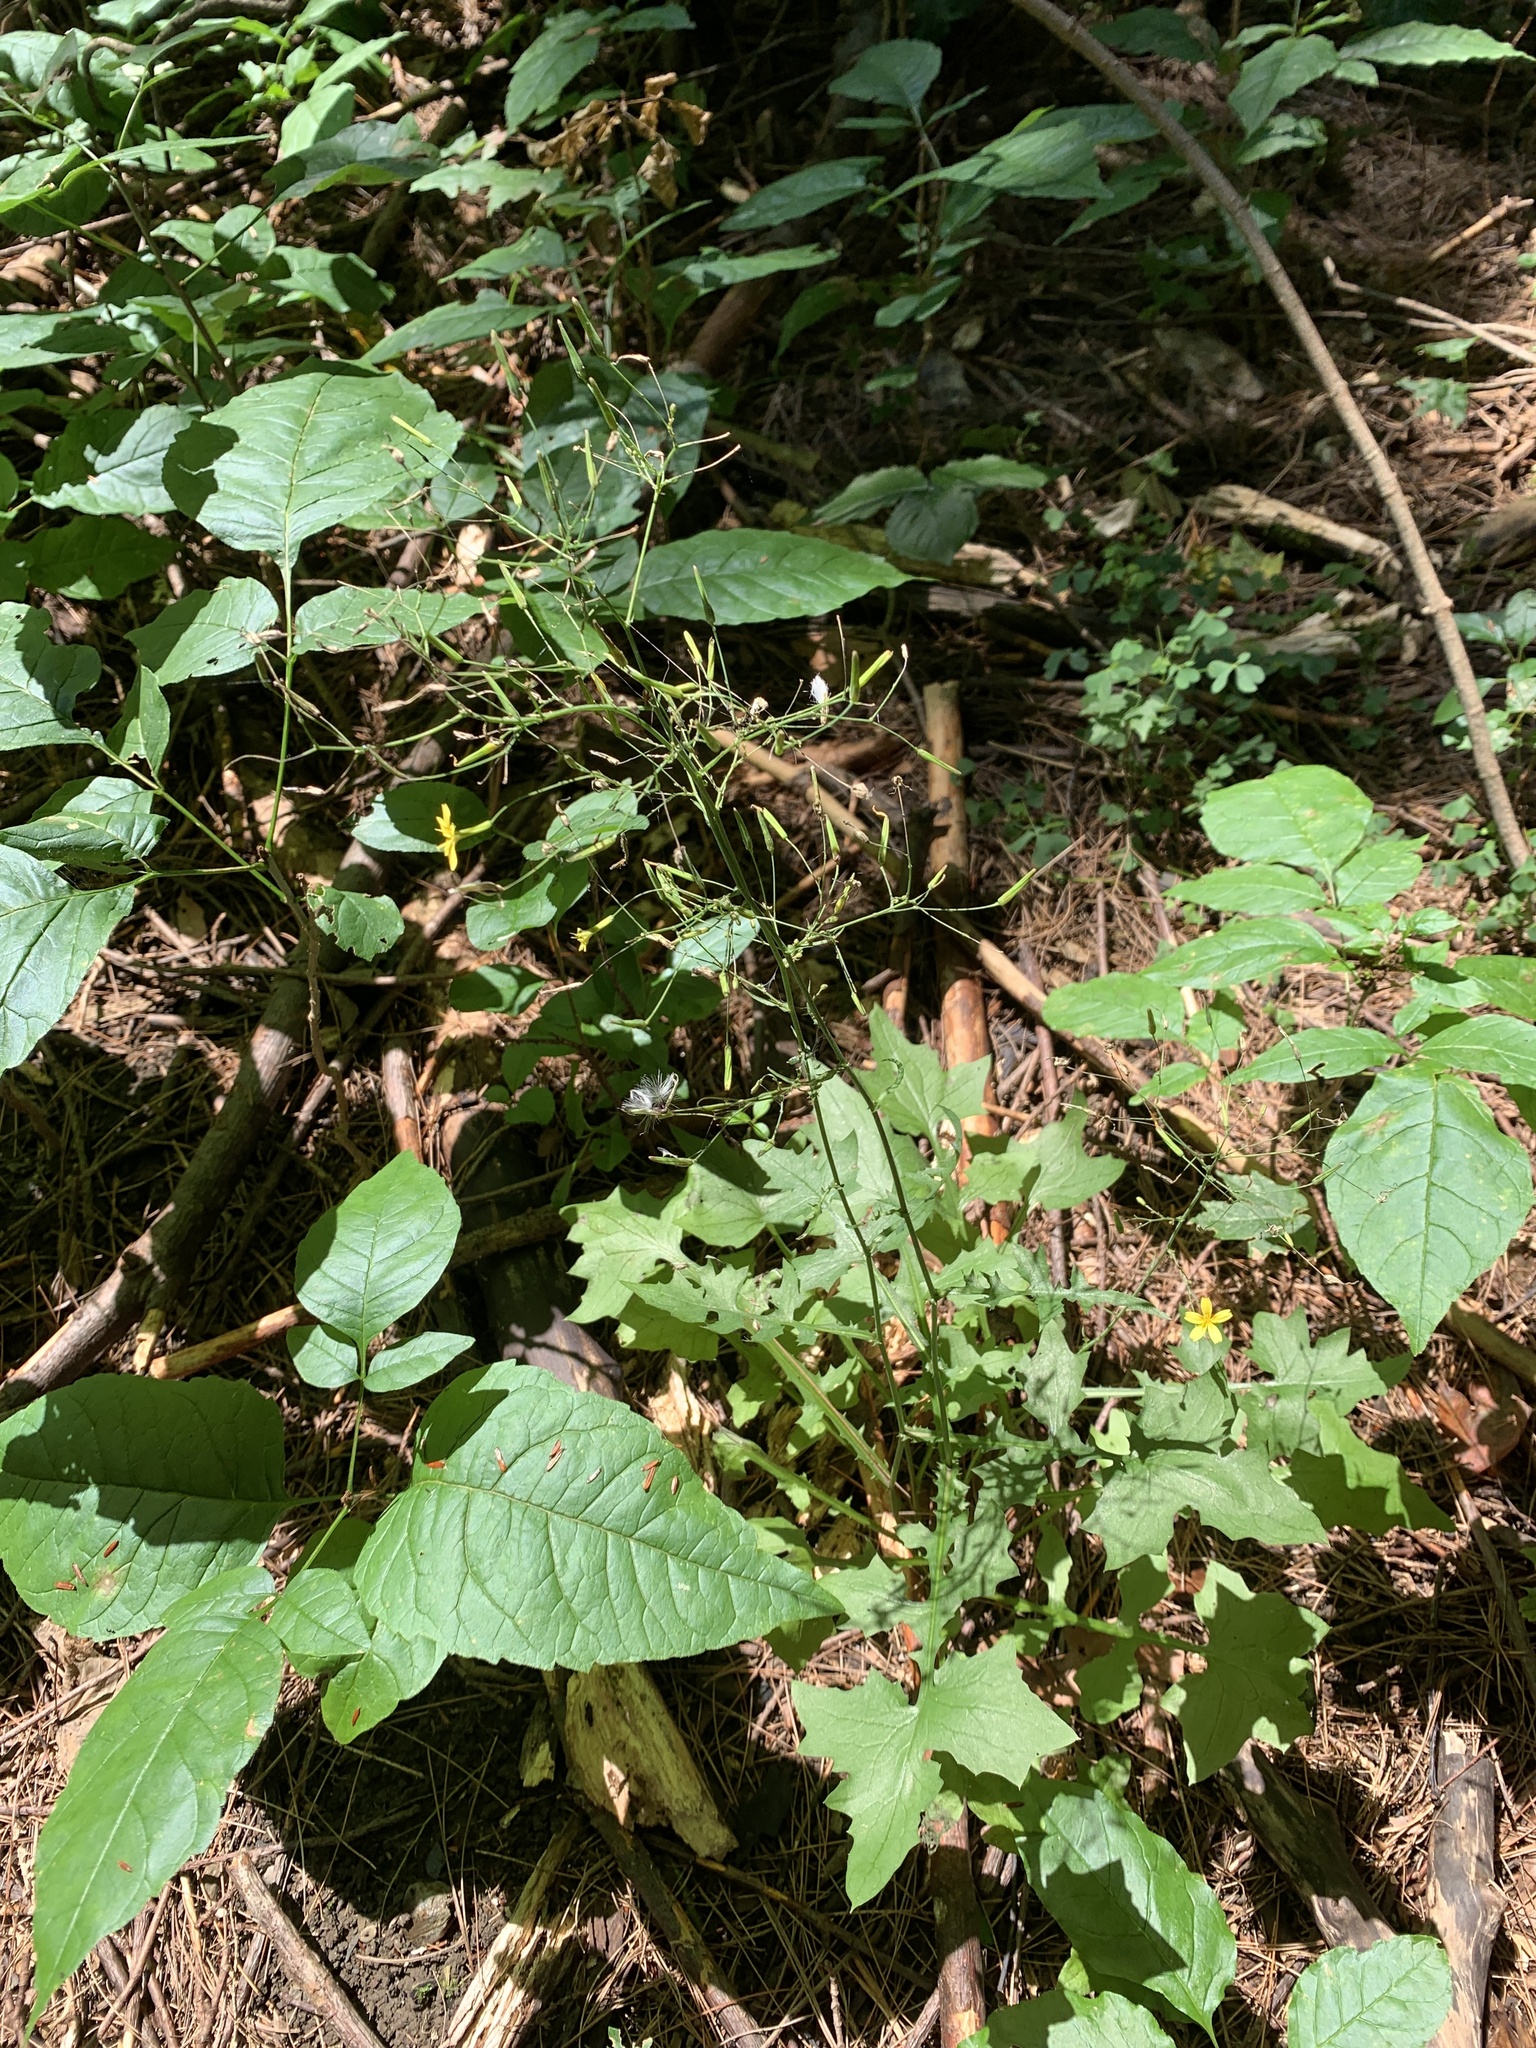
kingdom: Plantae
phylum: Tracheophyta
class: Magnoliopsida
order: Asterales
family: Asteraceae
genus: Mycelis
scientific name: Mycelis muralis
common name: Wall lettuce
